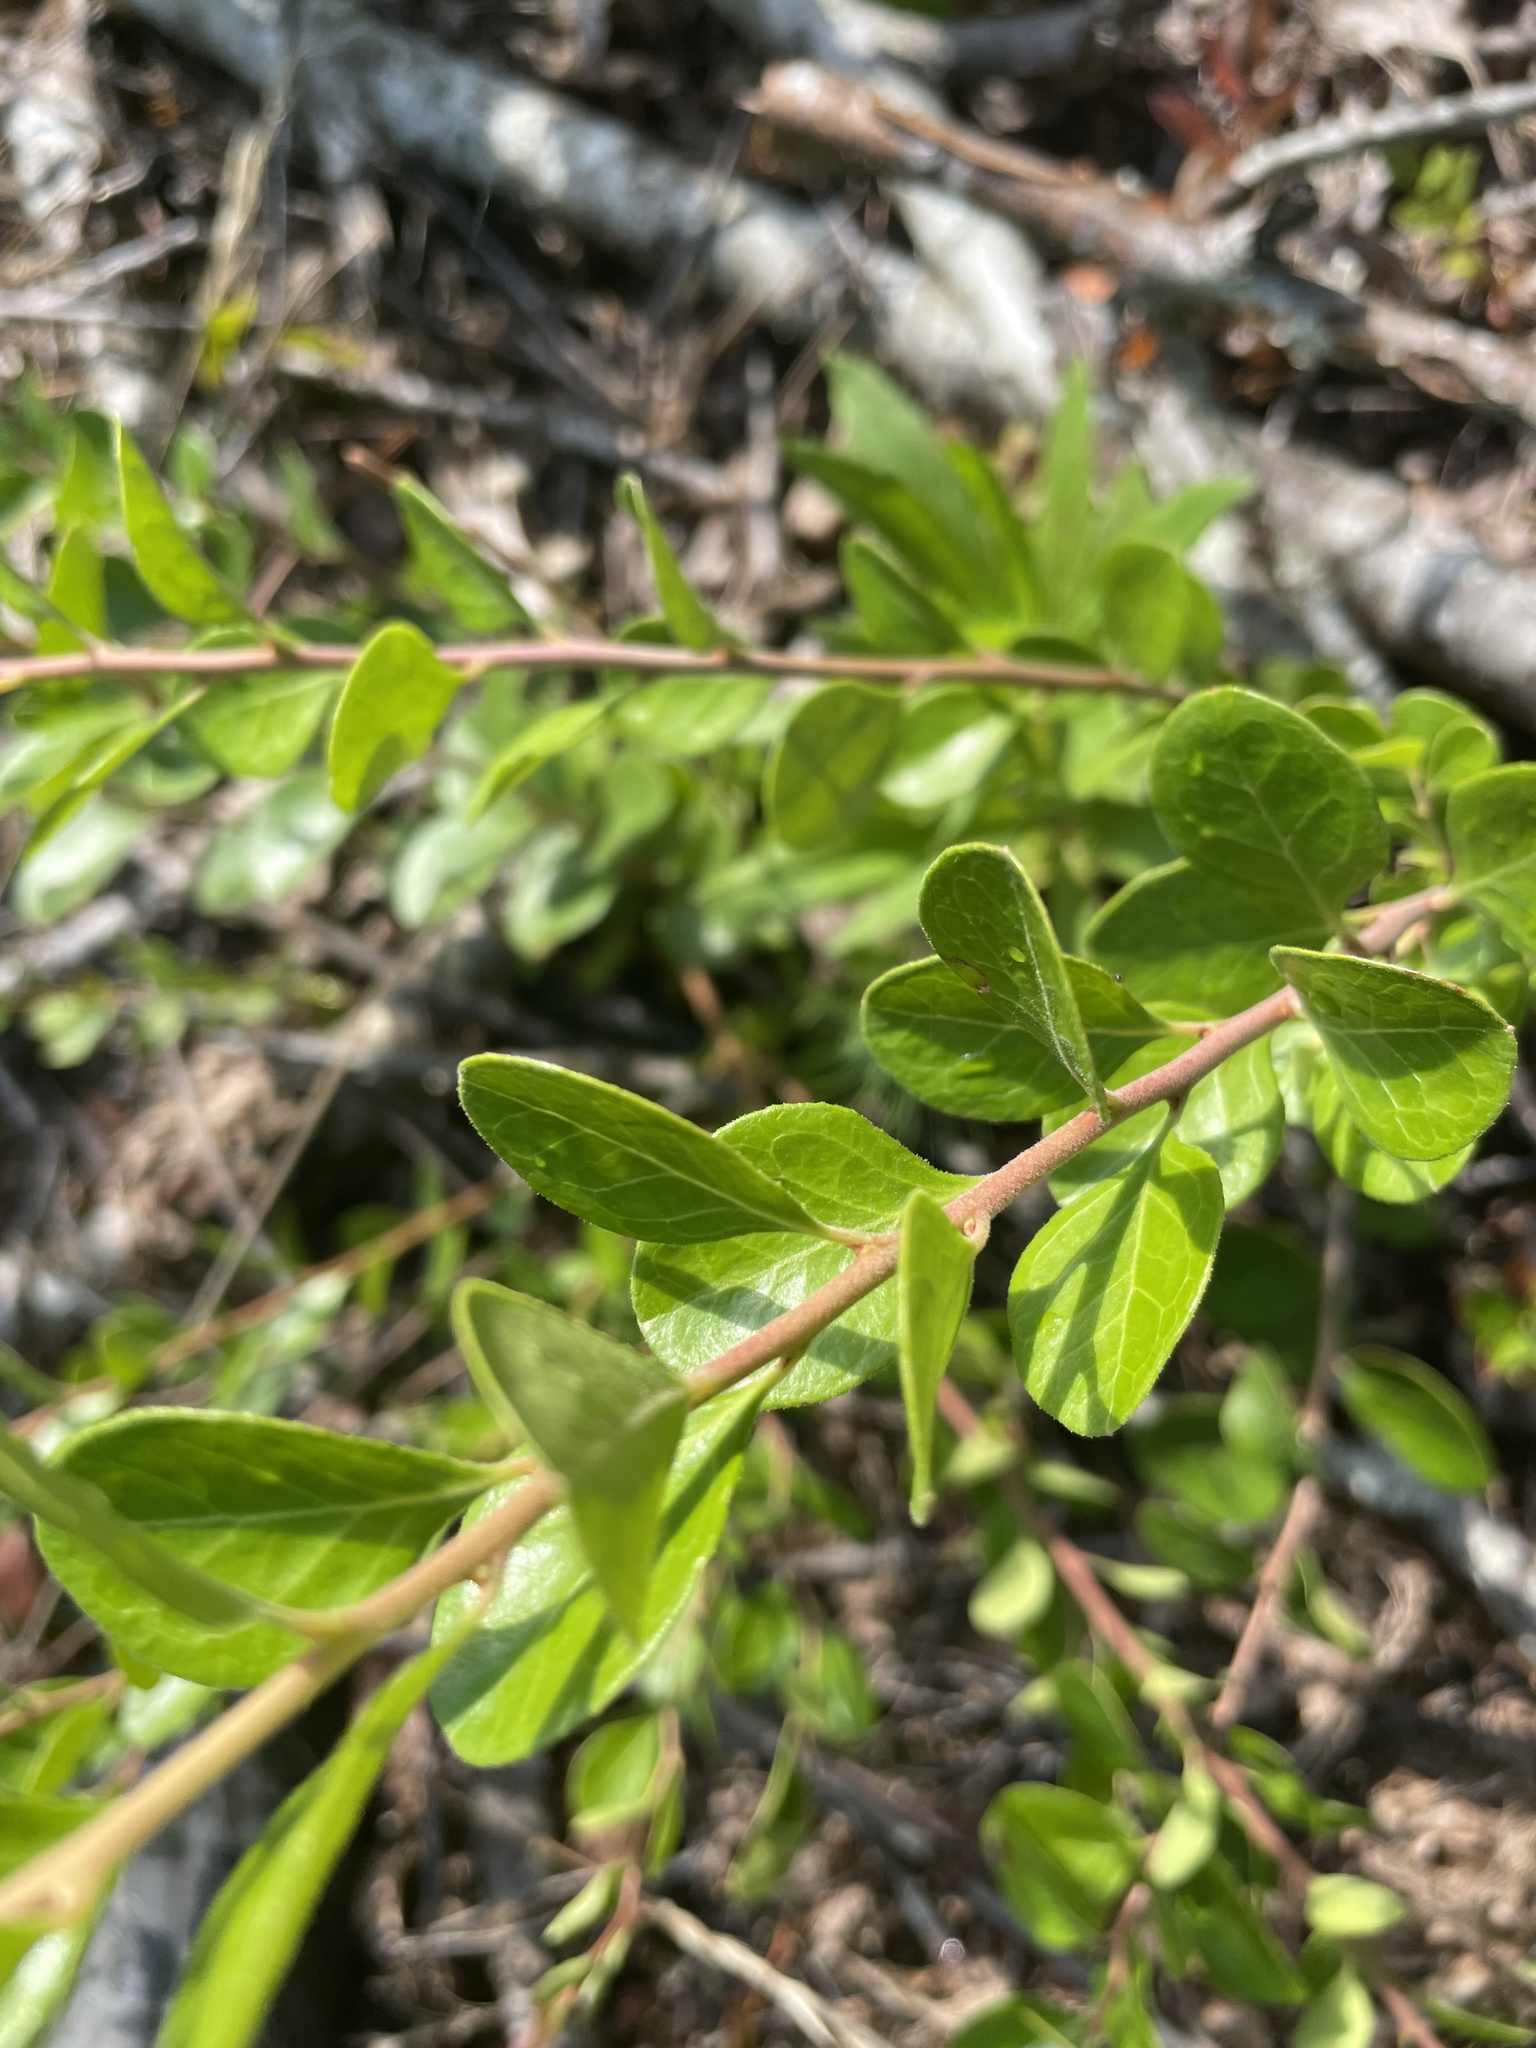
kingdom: Plantae
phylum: Tracheophyta
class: Magnoliopsida
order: Ericales
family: Ericaceae
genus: Vaccinium
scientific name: Vaccinium arboreum
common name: Farkleberry
